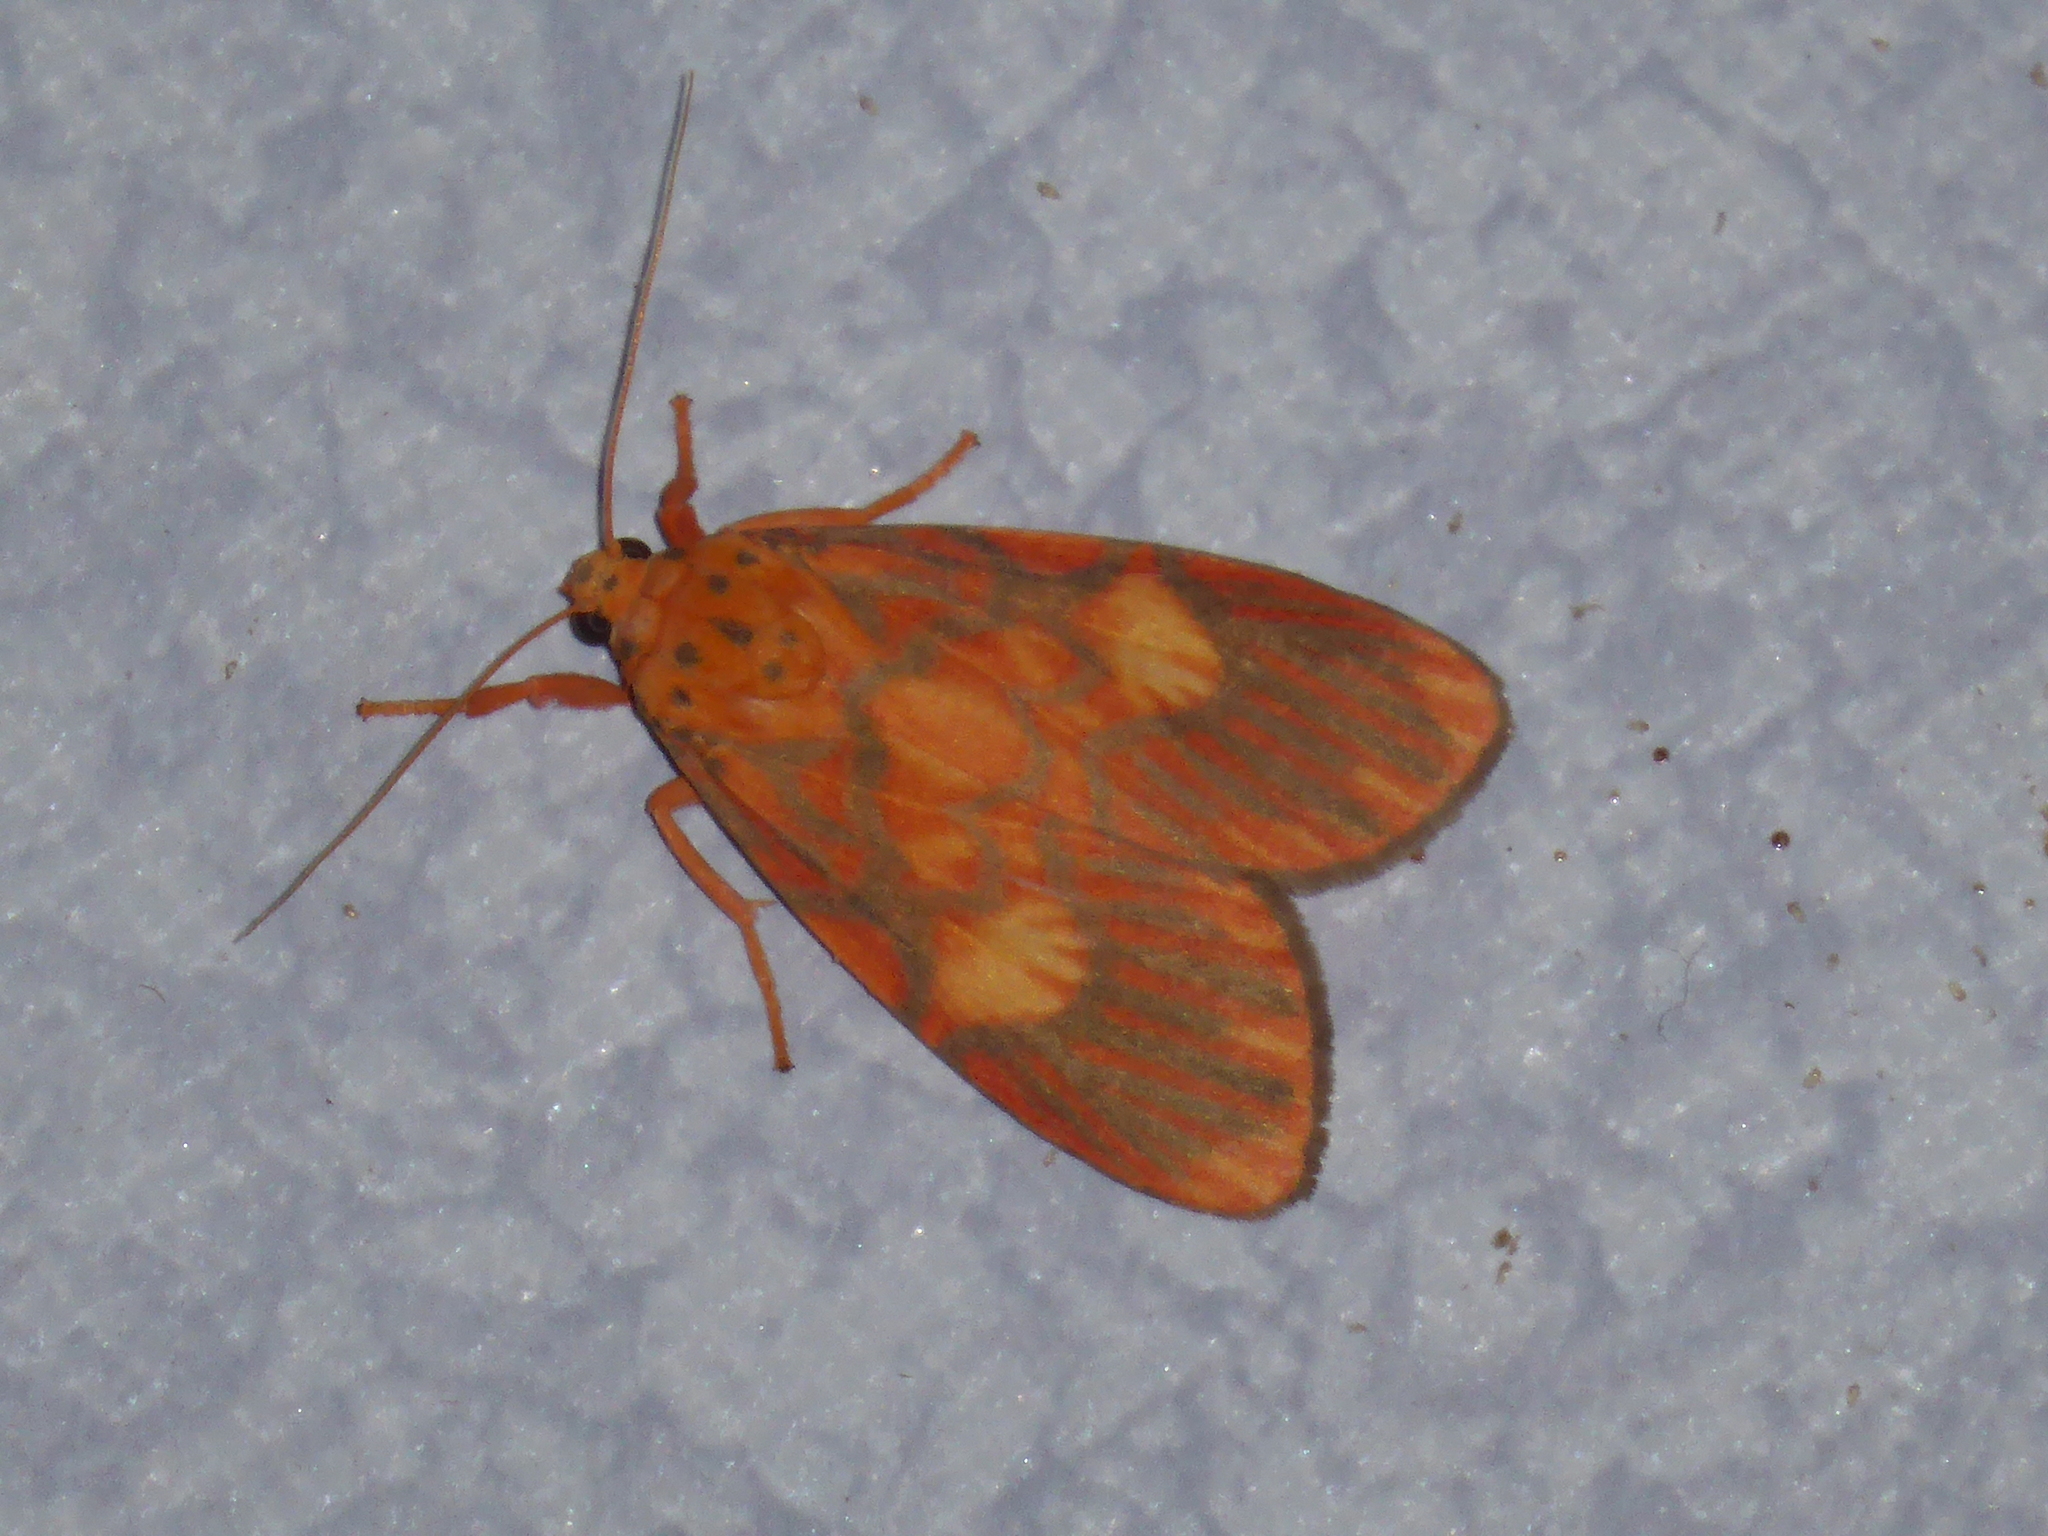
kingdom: Animalia
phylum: Arthropoda
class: Insecta
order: Lepidoptera
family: Erebidae
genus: Ammatho
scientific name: Ammatho roseororatus
